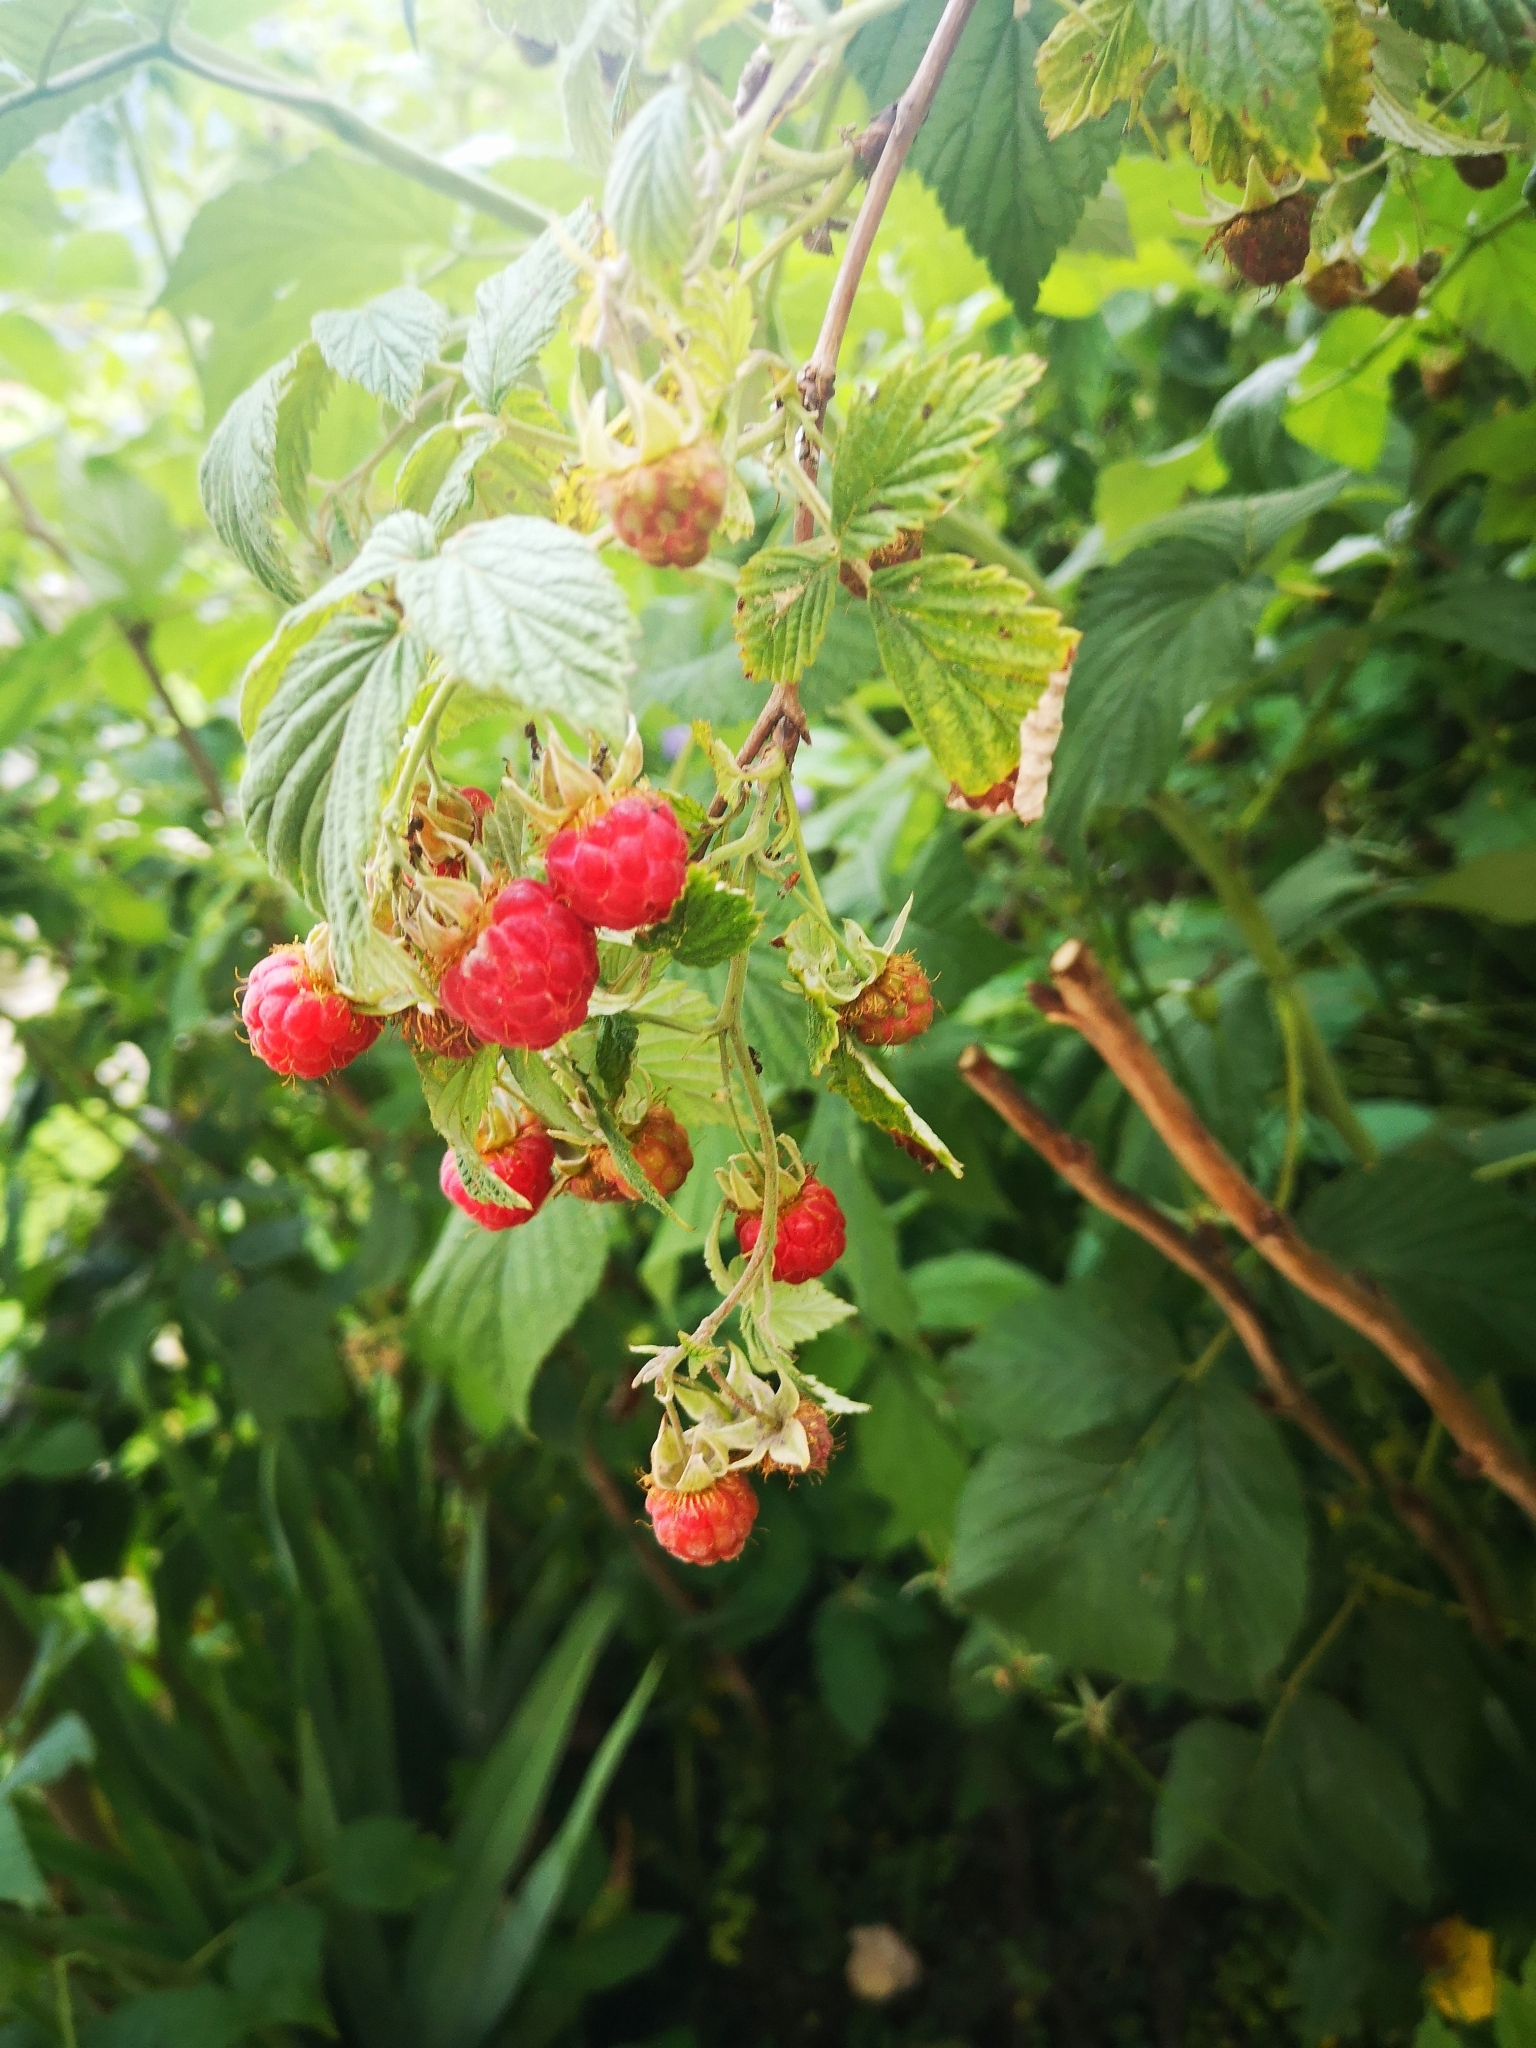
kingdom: Plantae
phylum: Tracheophyta
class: Magnoliopsida
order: Rosales
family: Rosaceae
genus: Rubus
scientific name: Rubus idaeus
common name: Raspberry
